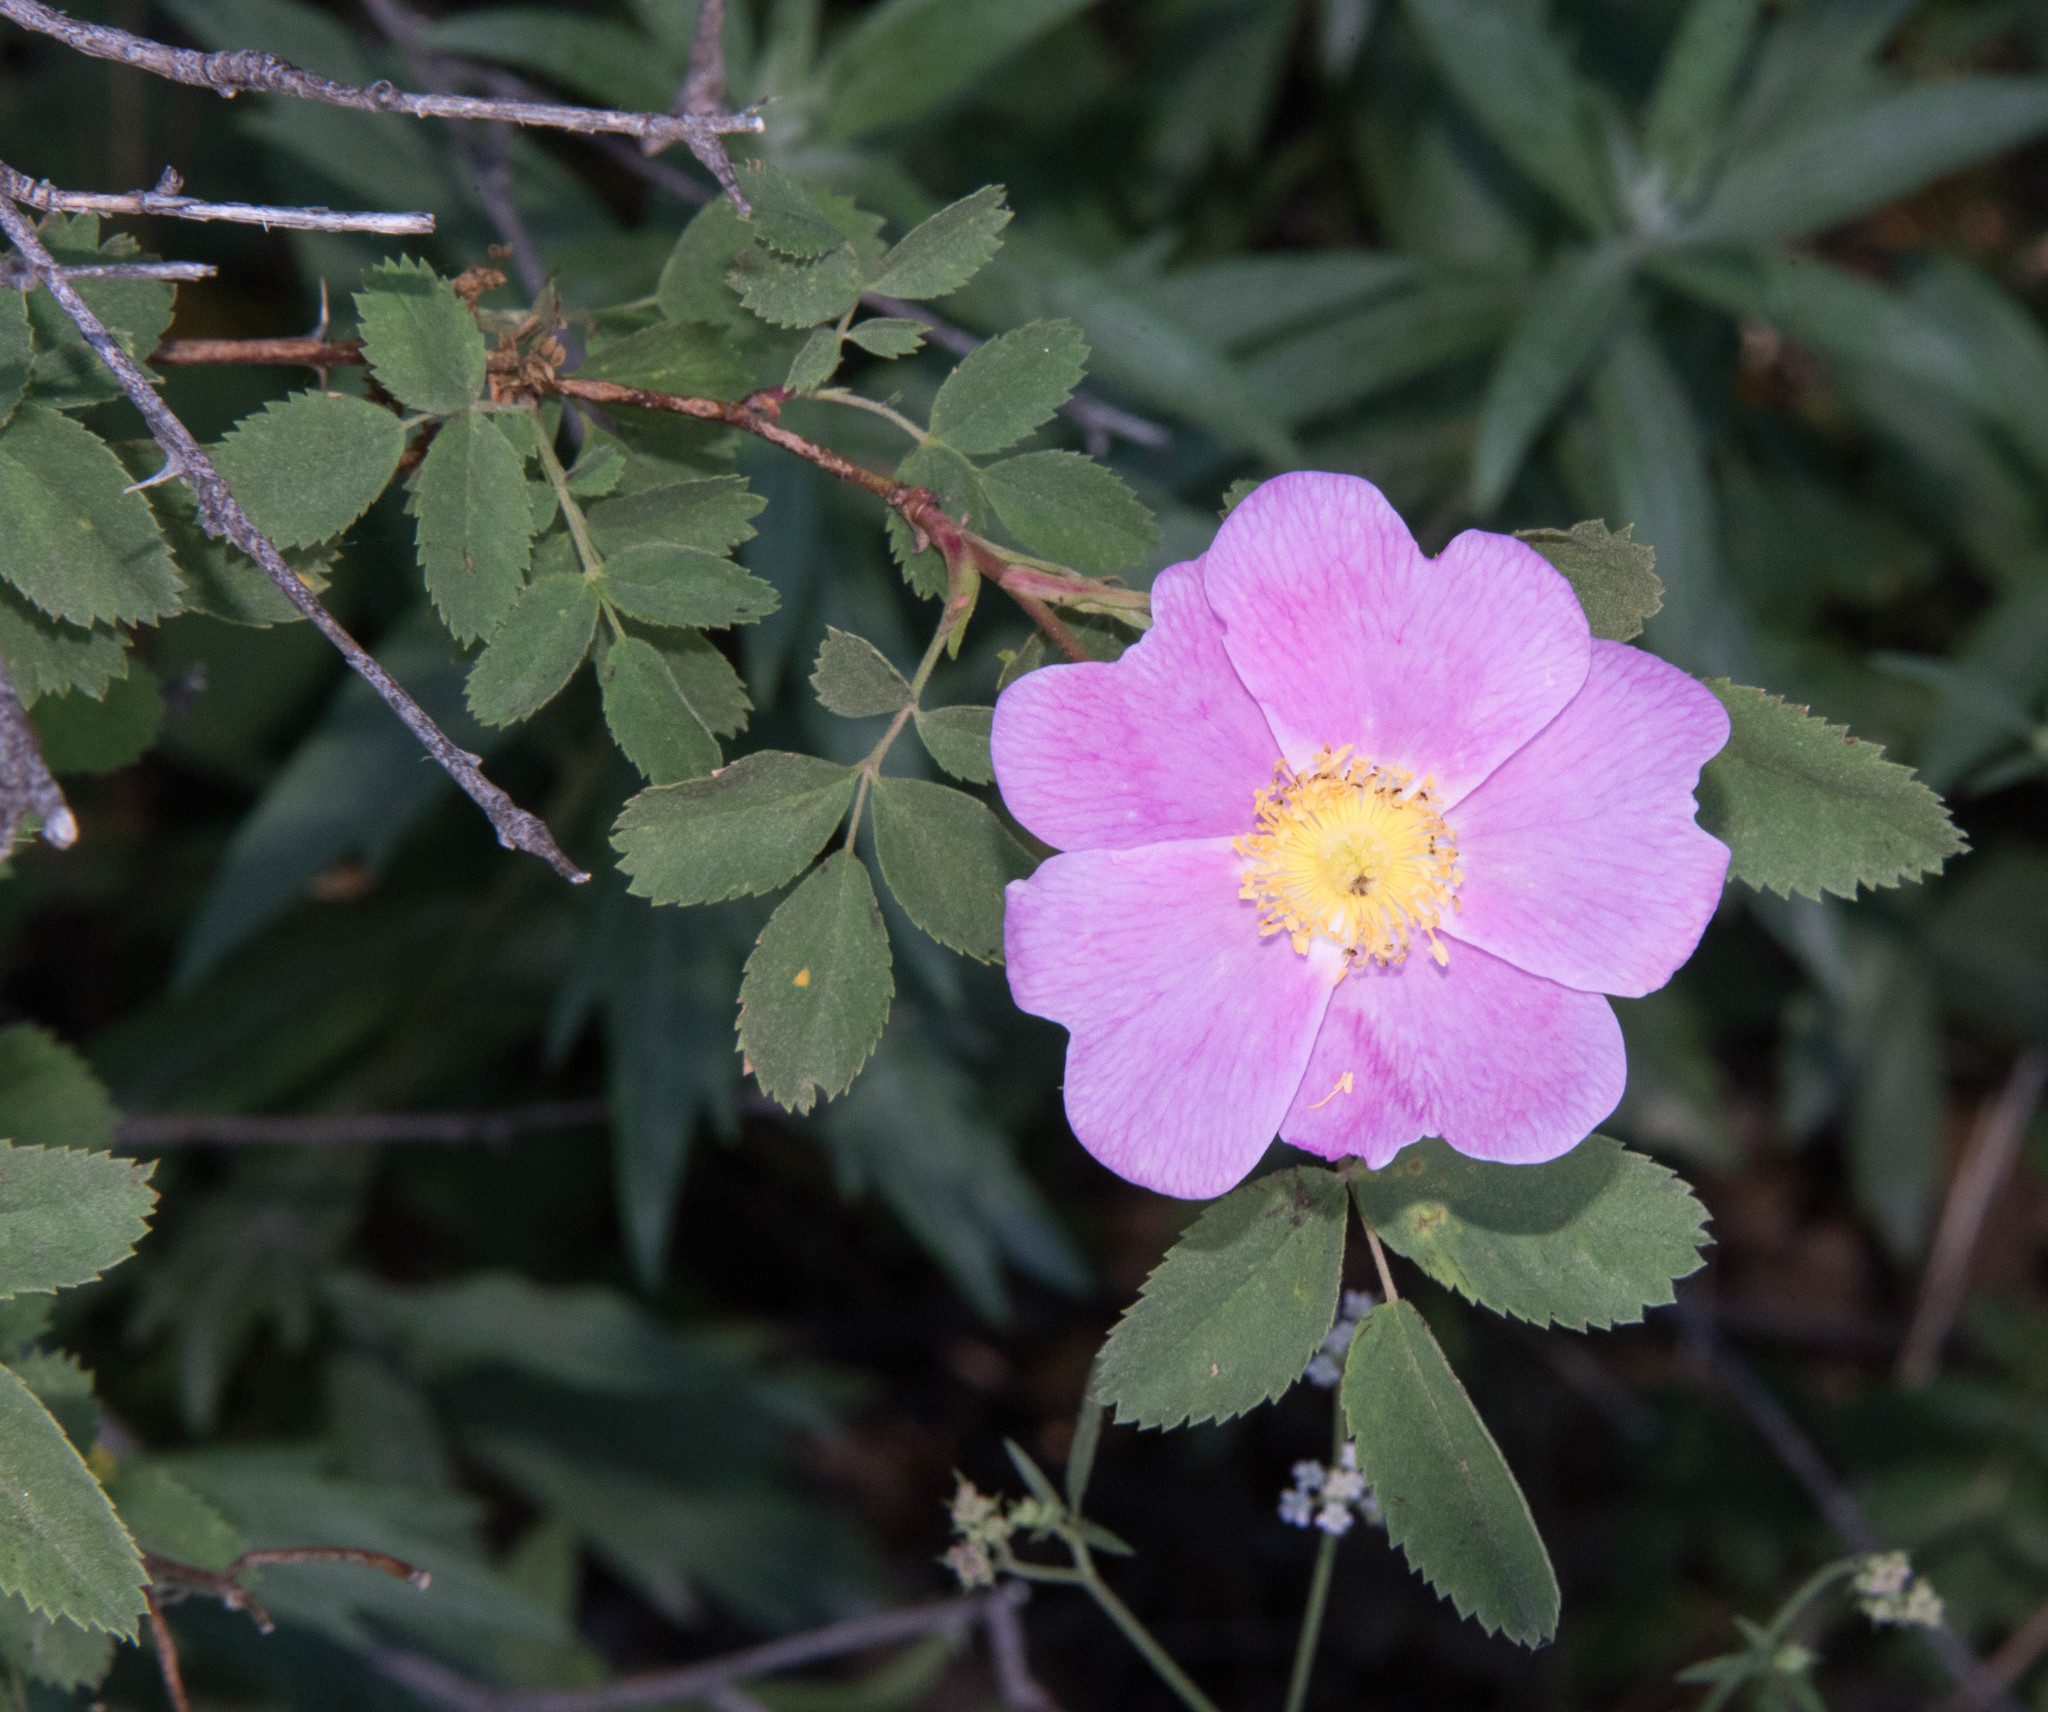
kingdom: Plantae
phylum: Tracheophyta
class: Magnoliopsida
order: Rosales
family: Rosaceae
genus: Rosa
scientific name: Rosa gymnocarpa
